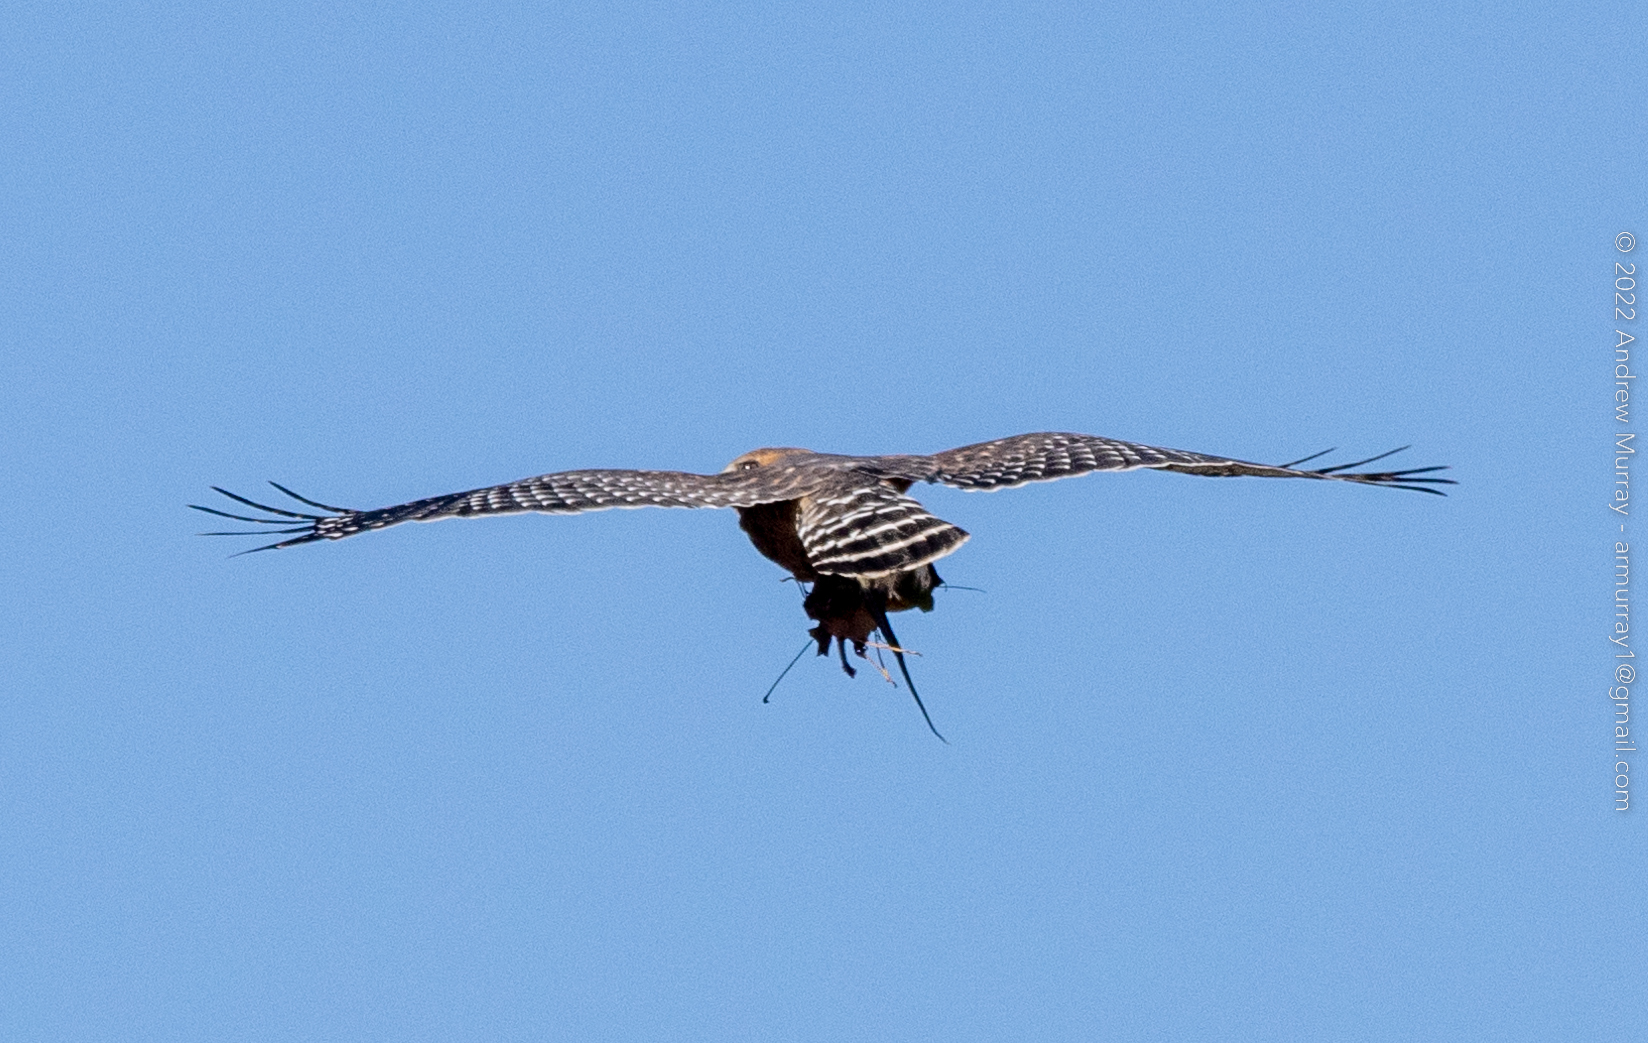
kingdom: Animalia
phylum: Chordata
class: Aves
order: Accipitriformes
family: Accipitridae
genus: Buteo
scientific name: Buteo lineatus
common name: Red-shouldered hawk
